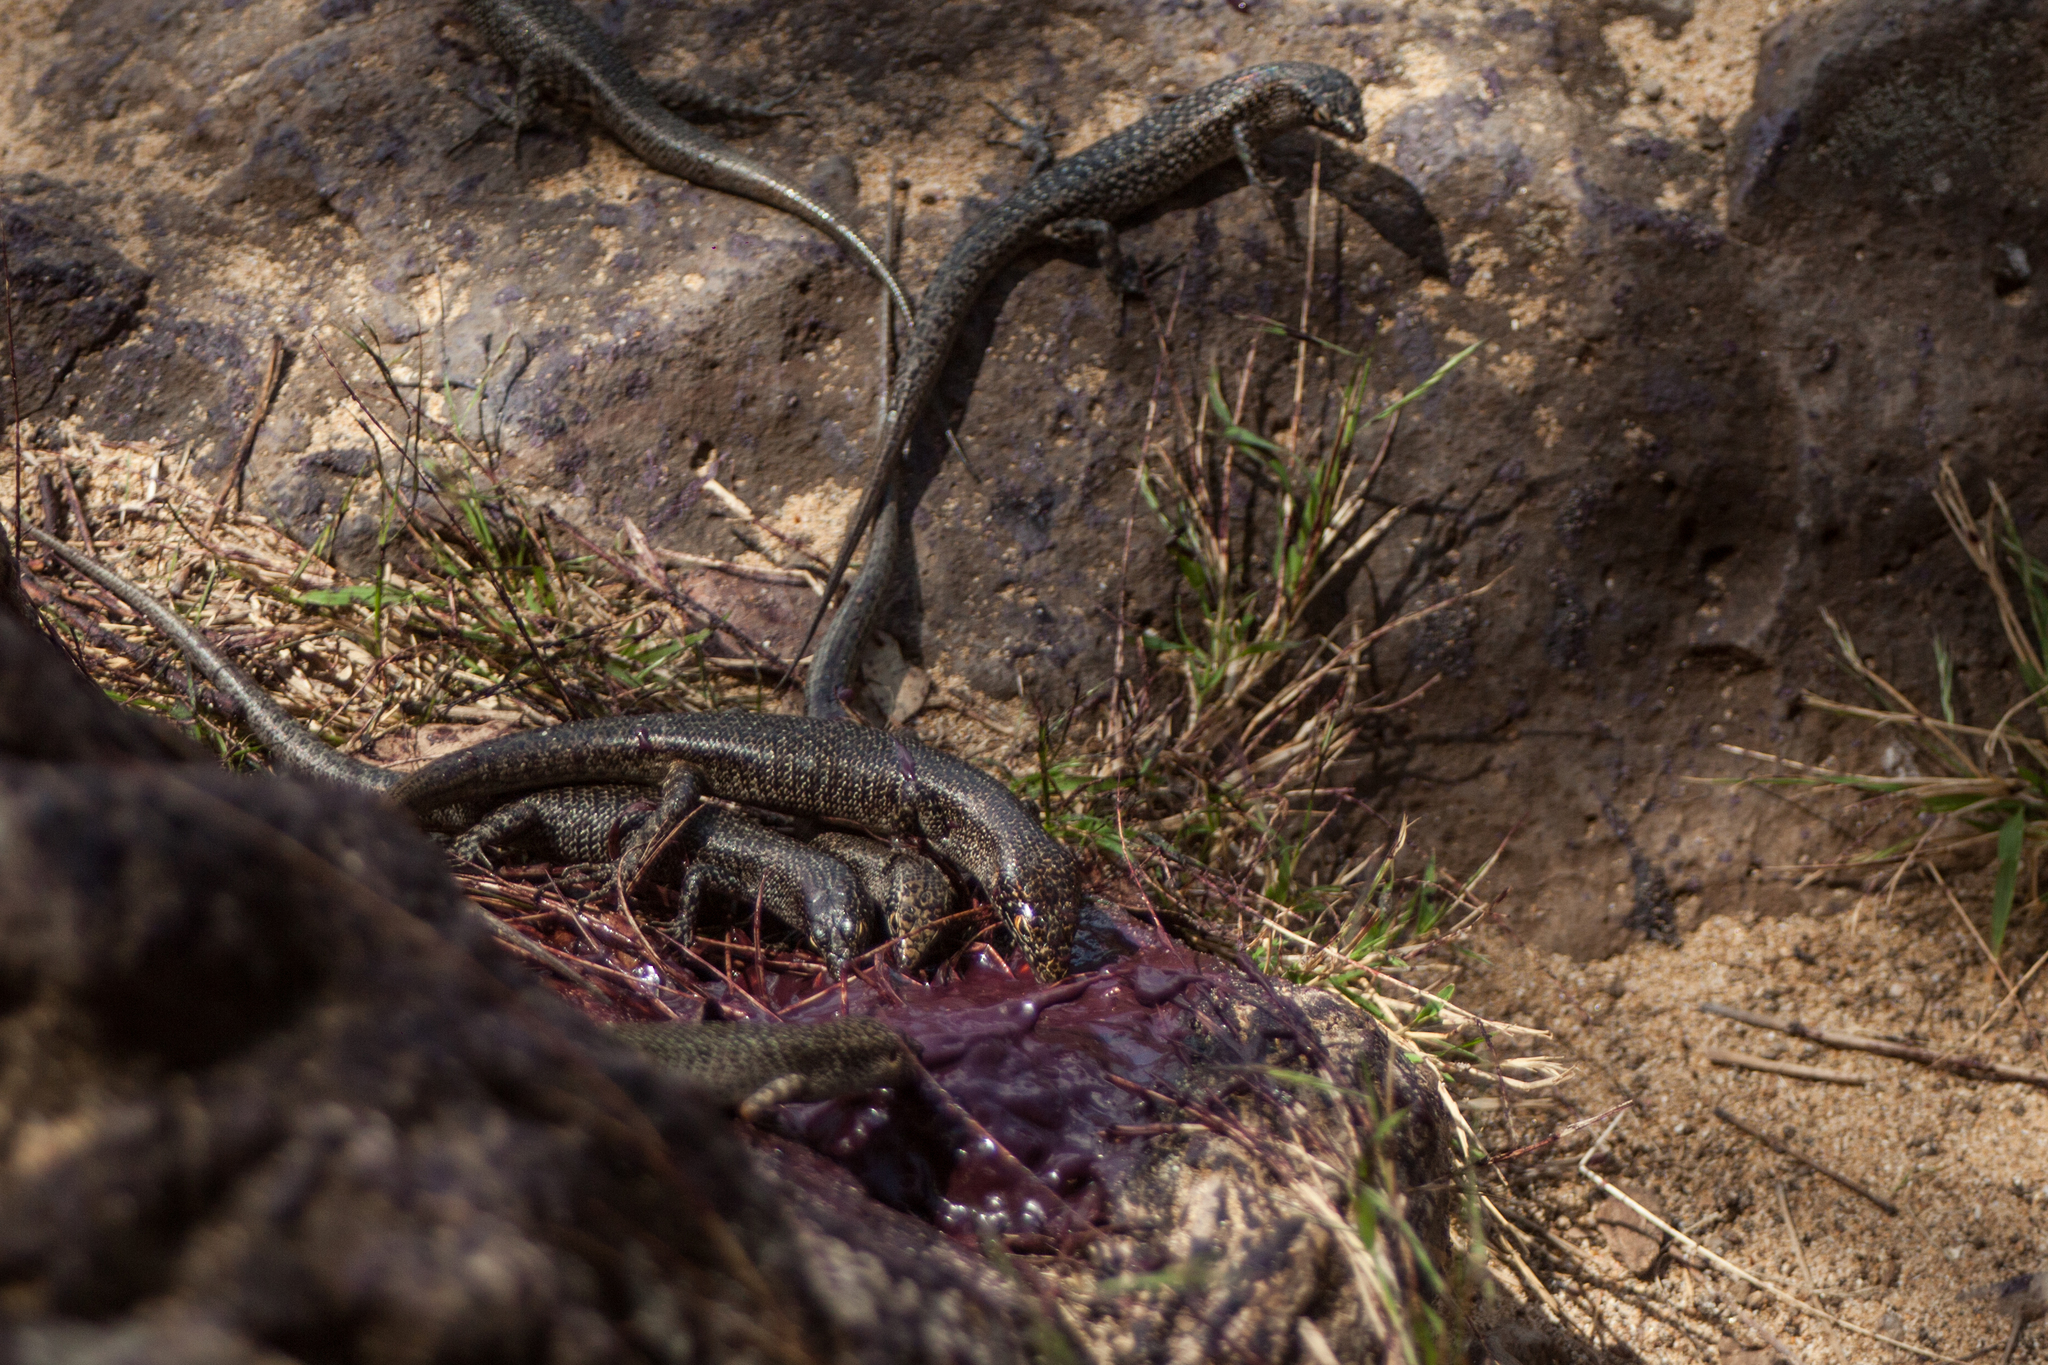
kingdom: Animalia
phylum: Chordata
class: Squamata
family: Scincidae
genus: Trachylepis
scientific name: Trachylepis atlantica
